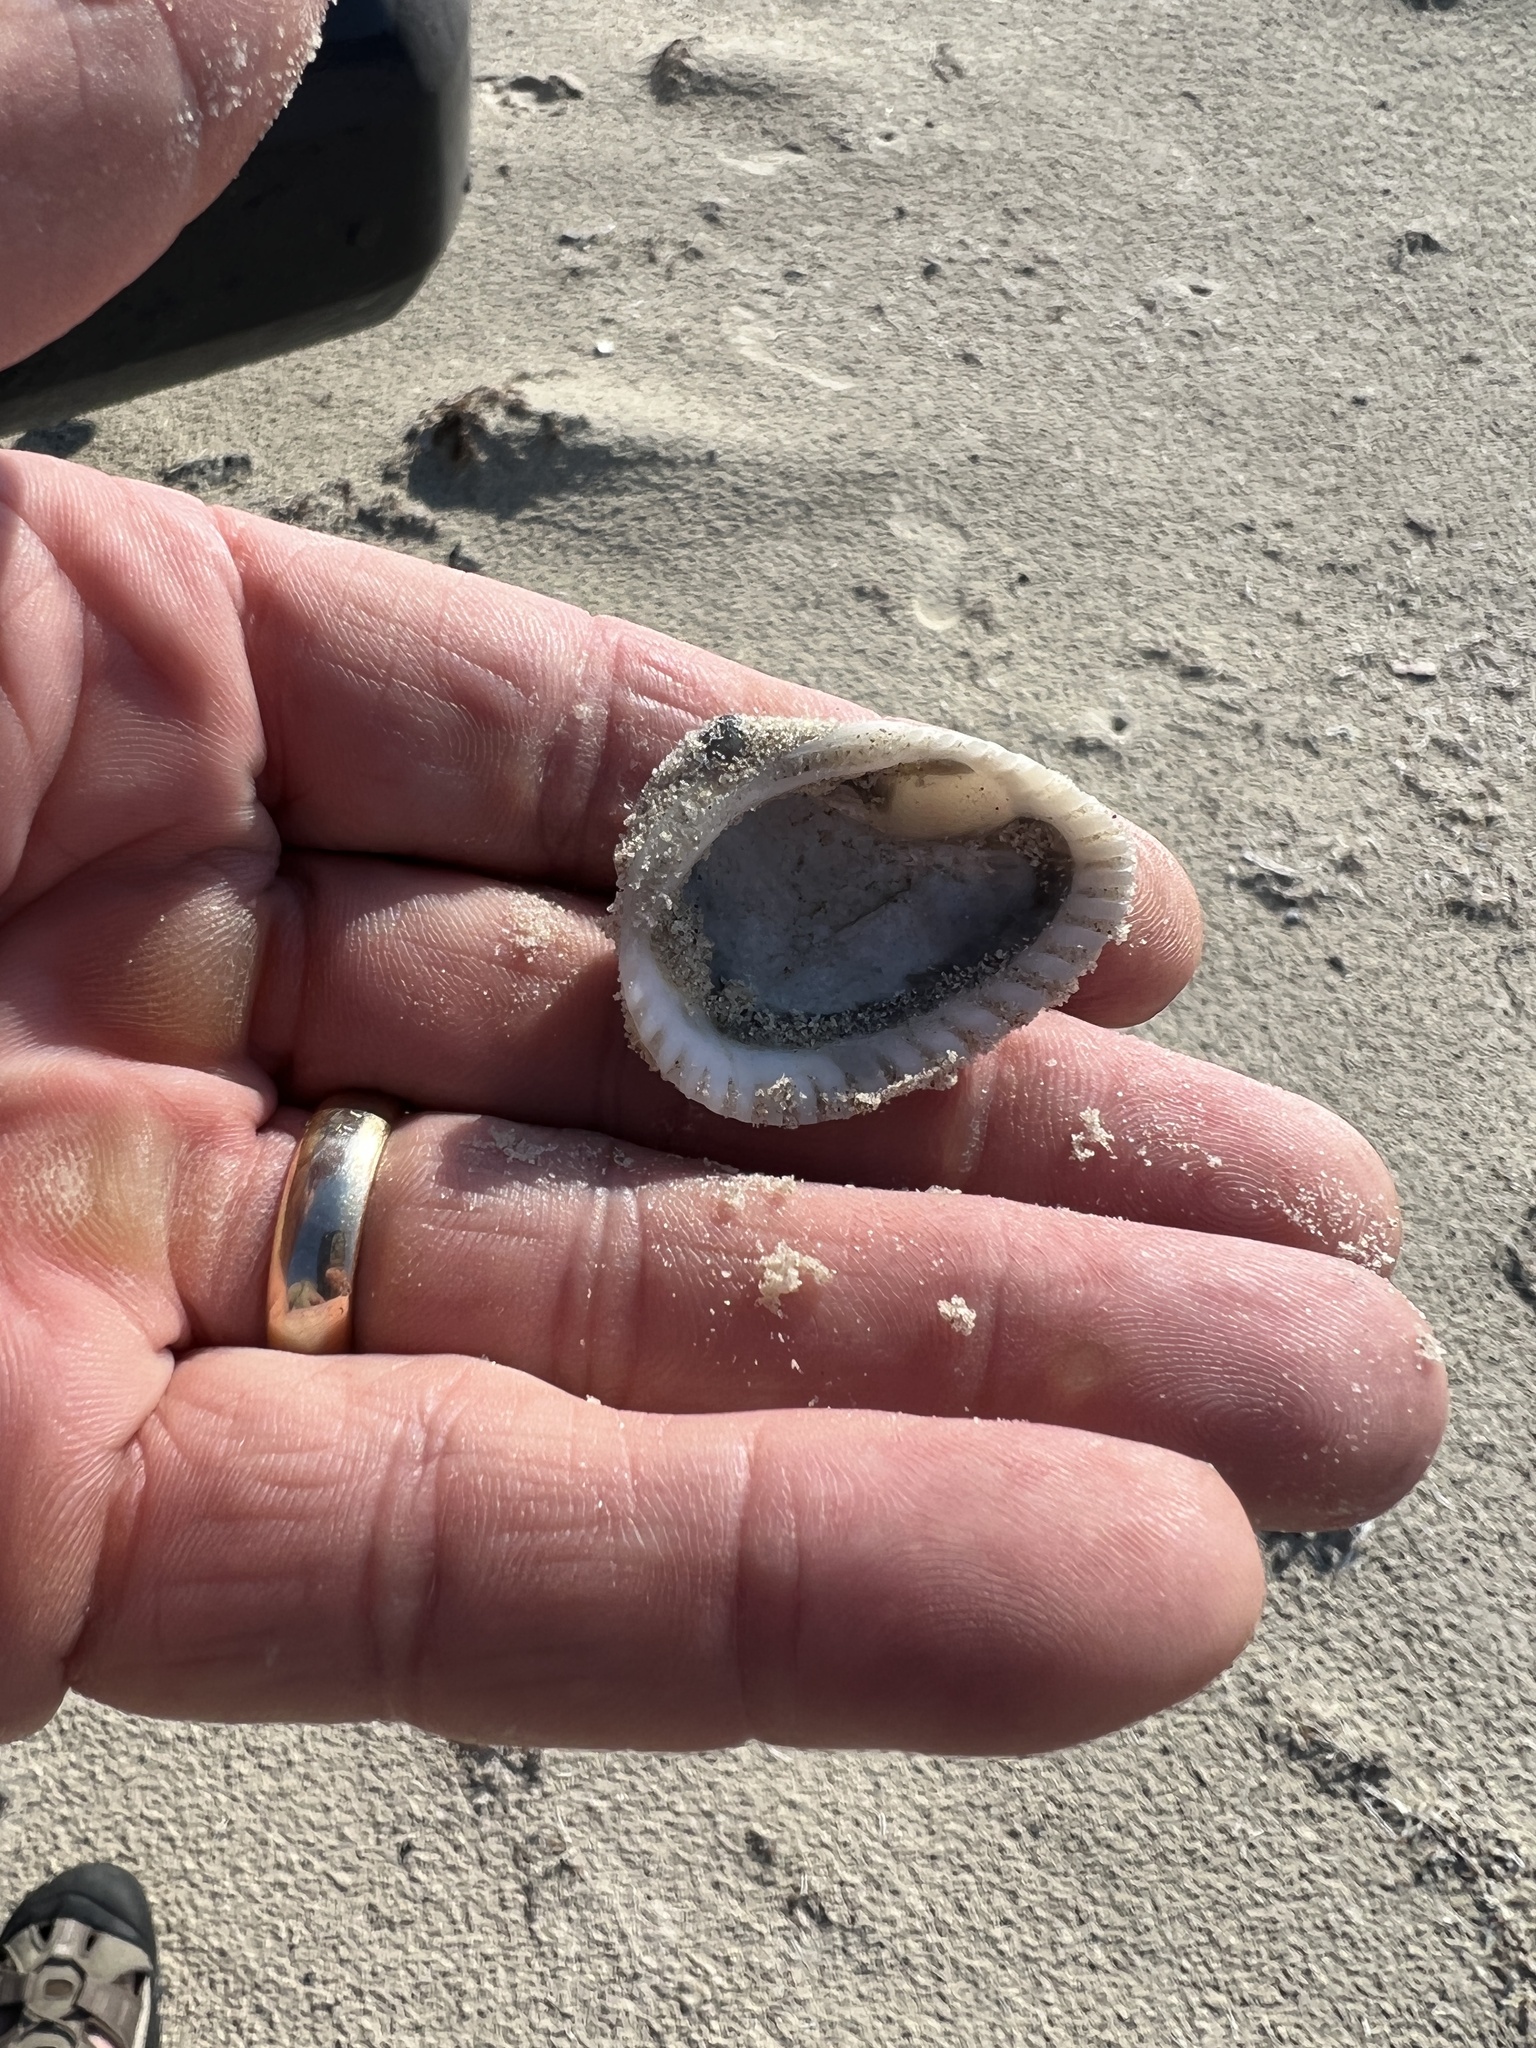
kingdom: Animalia
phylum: Mollusca
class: Bivalvia
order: Arcida
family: Noetiidae
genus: Noetia
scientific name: Noetia ponderosa
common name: Ponderous ark
